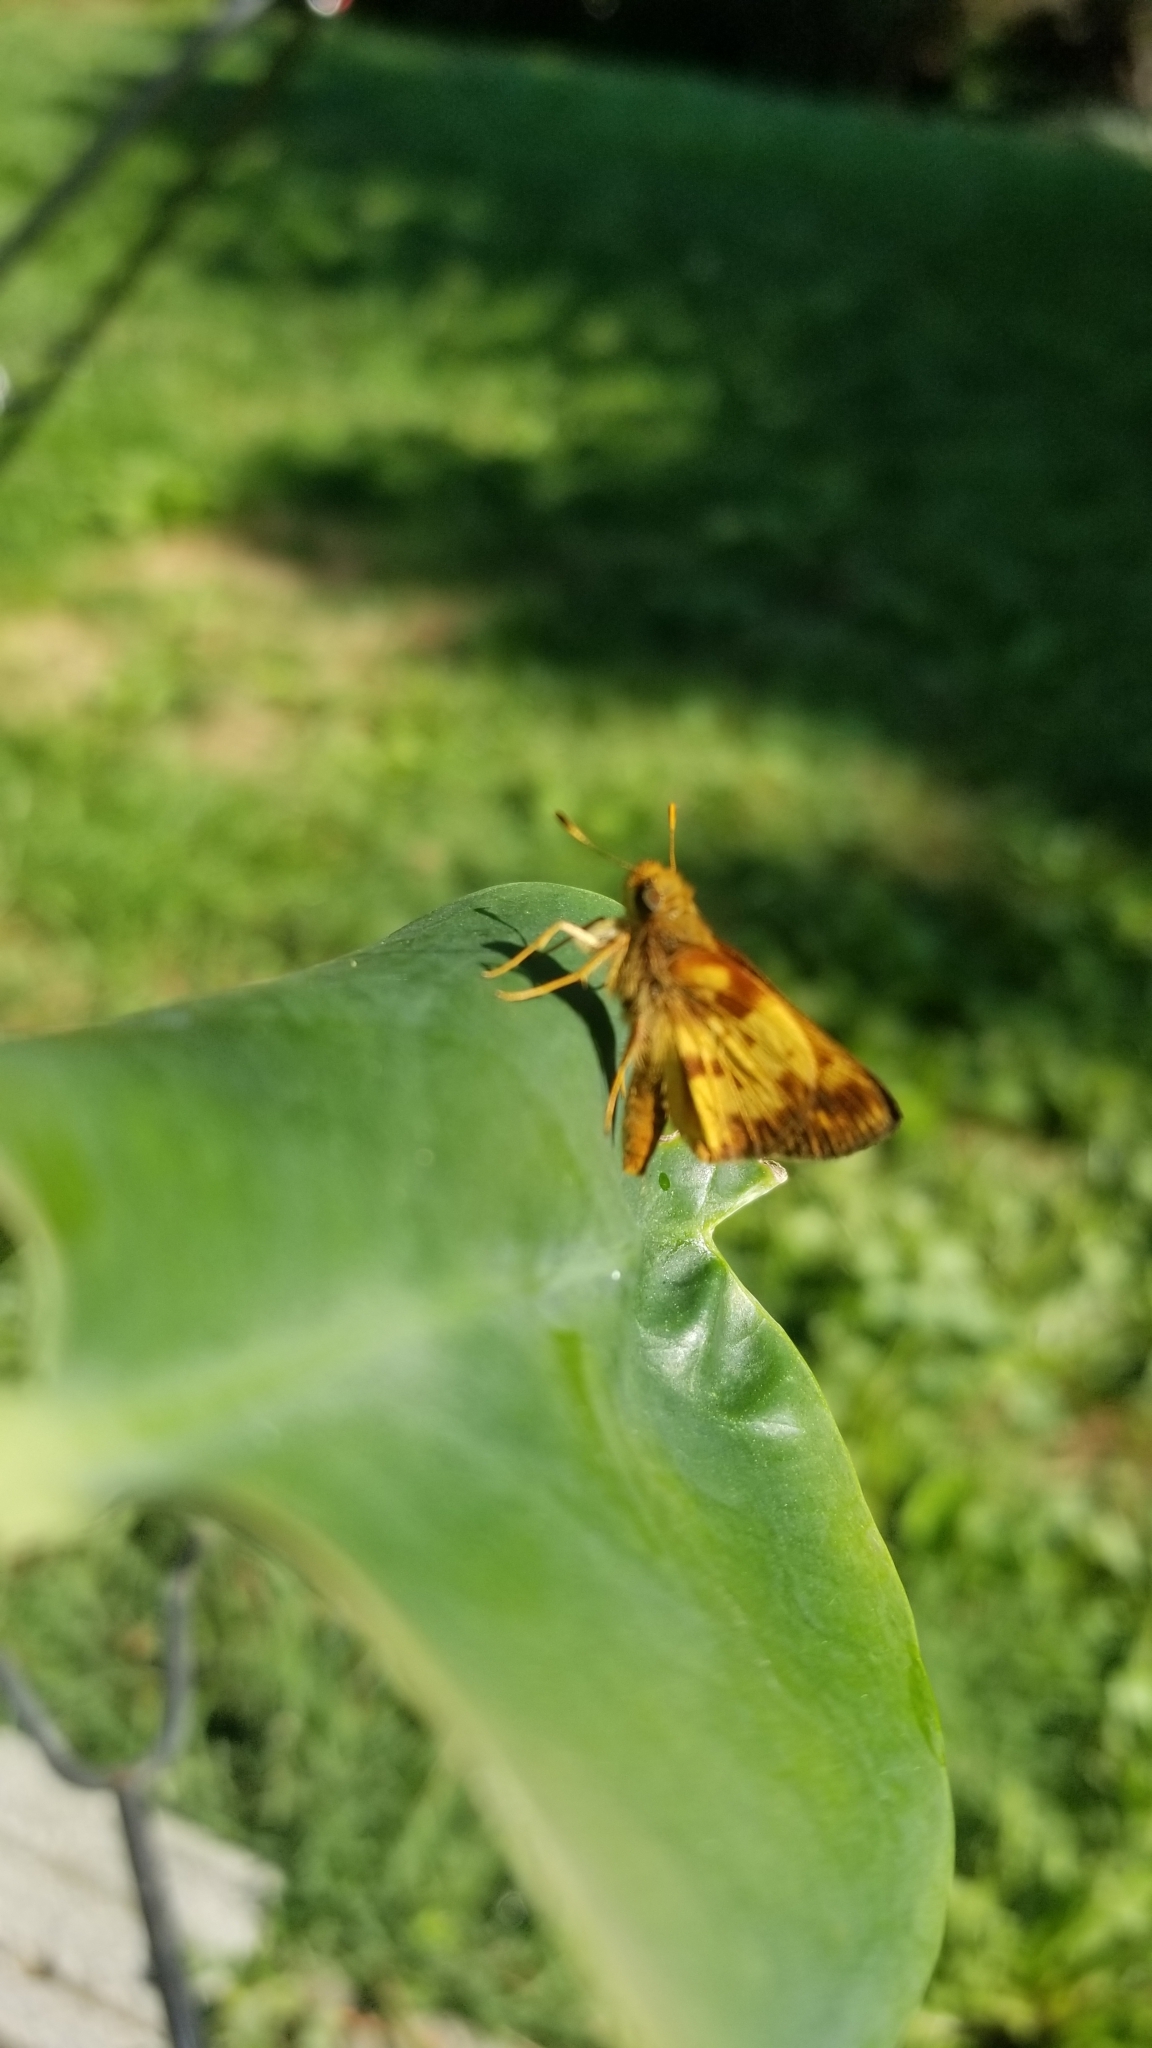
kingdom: Animalia
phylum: Arthropoda
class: Insecta
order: Lepidoptera
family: Hesperiidae
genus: Lon
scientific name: Lon zabulon
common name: Zabulon skipper
